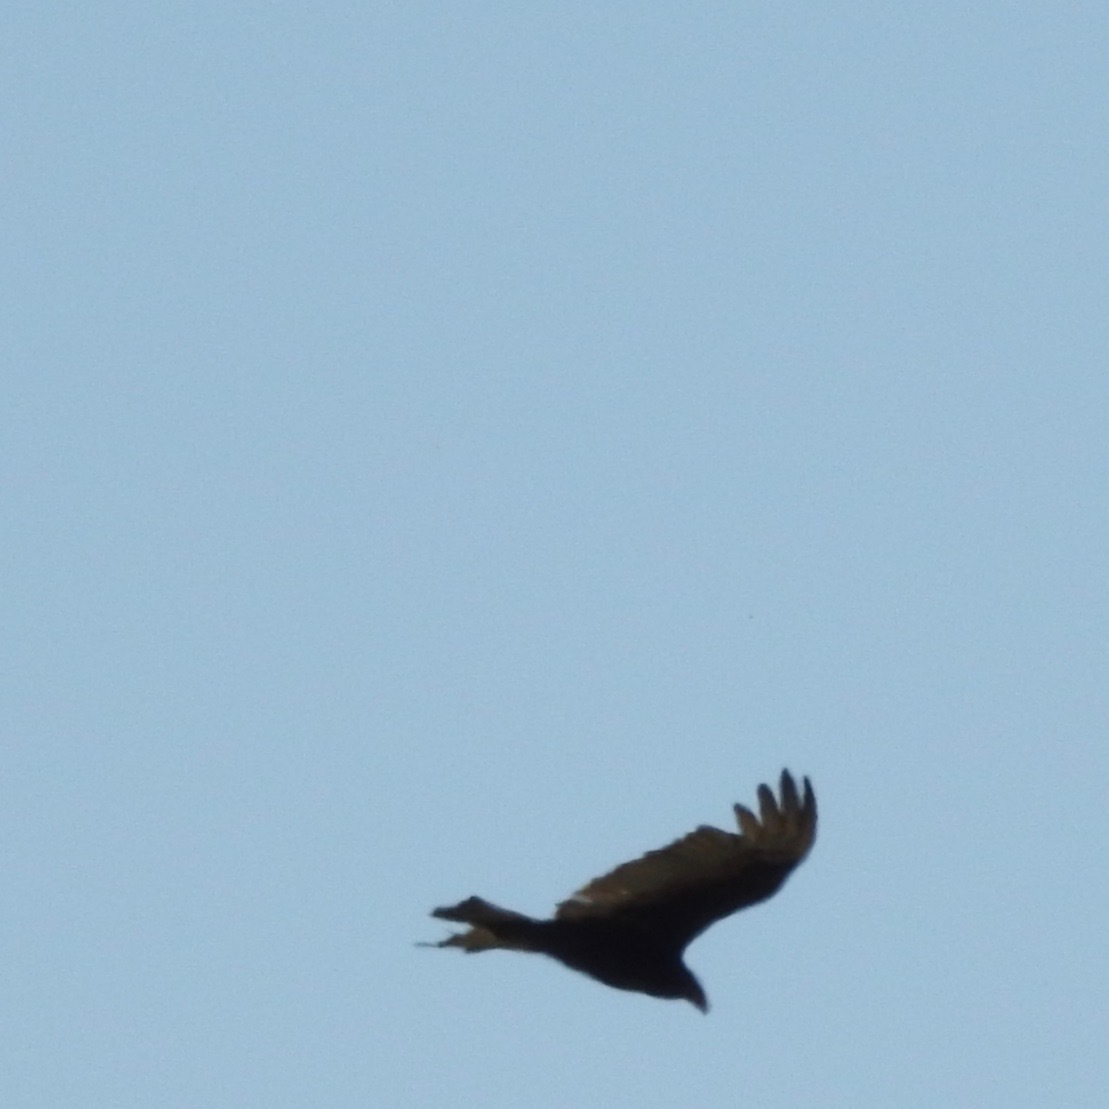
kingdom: Animalia
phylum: Chordata
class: Aves
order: Accipitriformes
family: Cathartidae
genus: Cathartes
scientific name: Cathartes aura
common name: Turkey vulture
